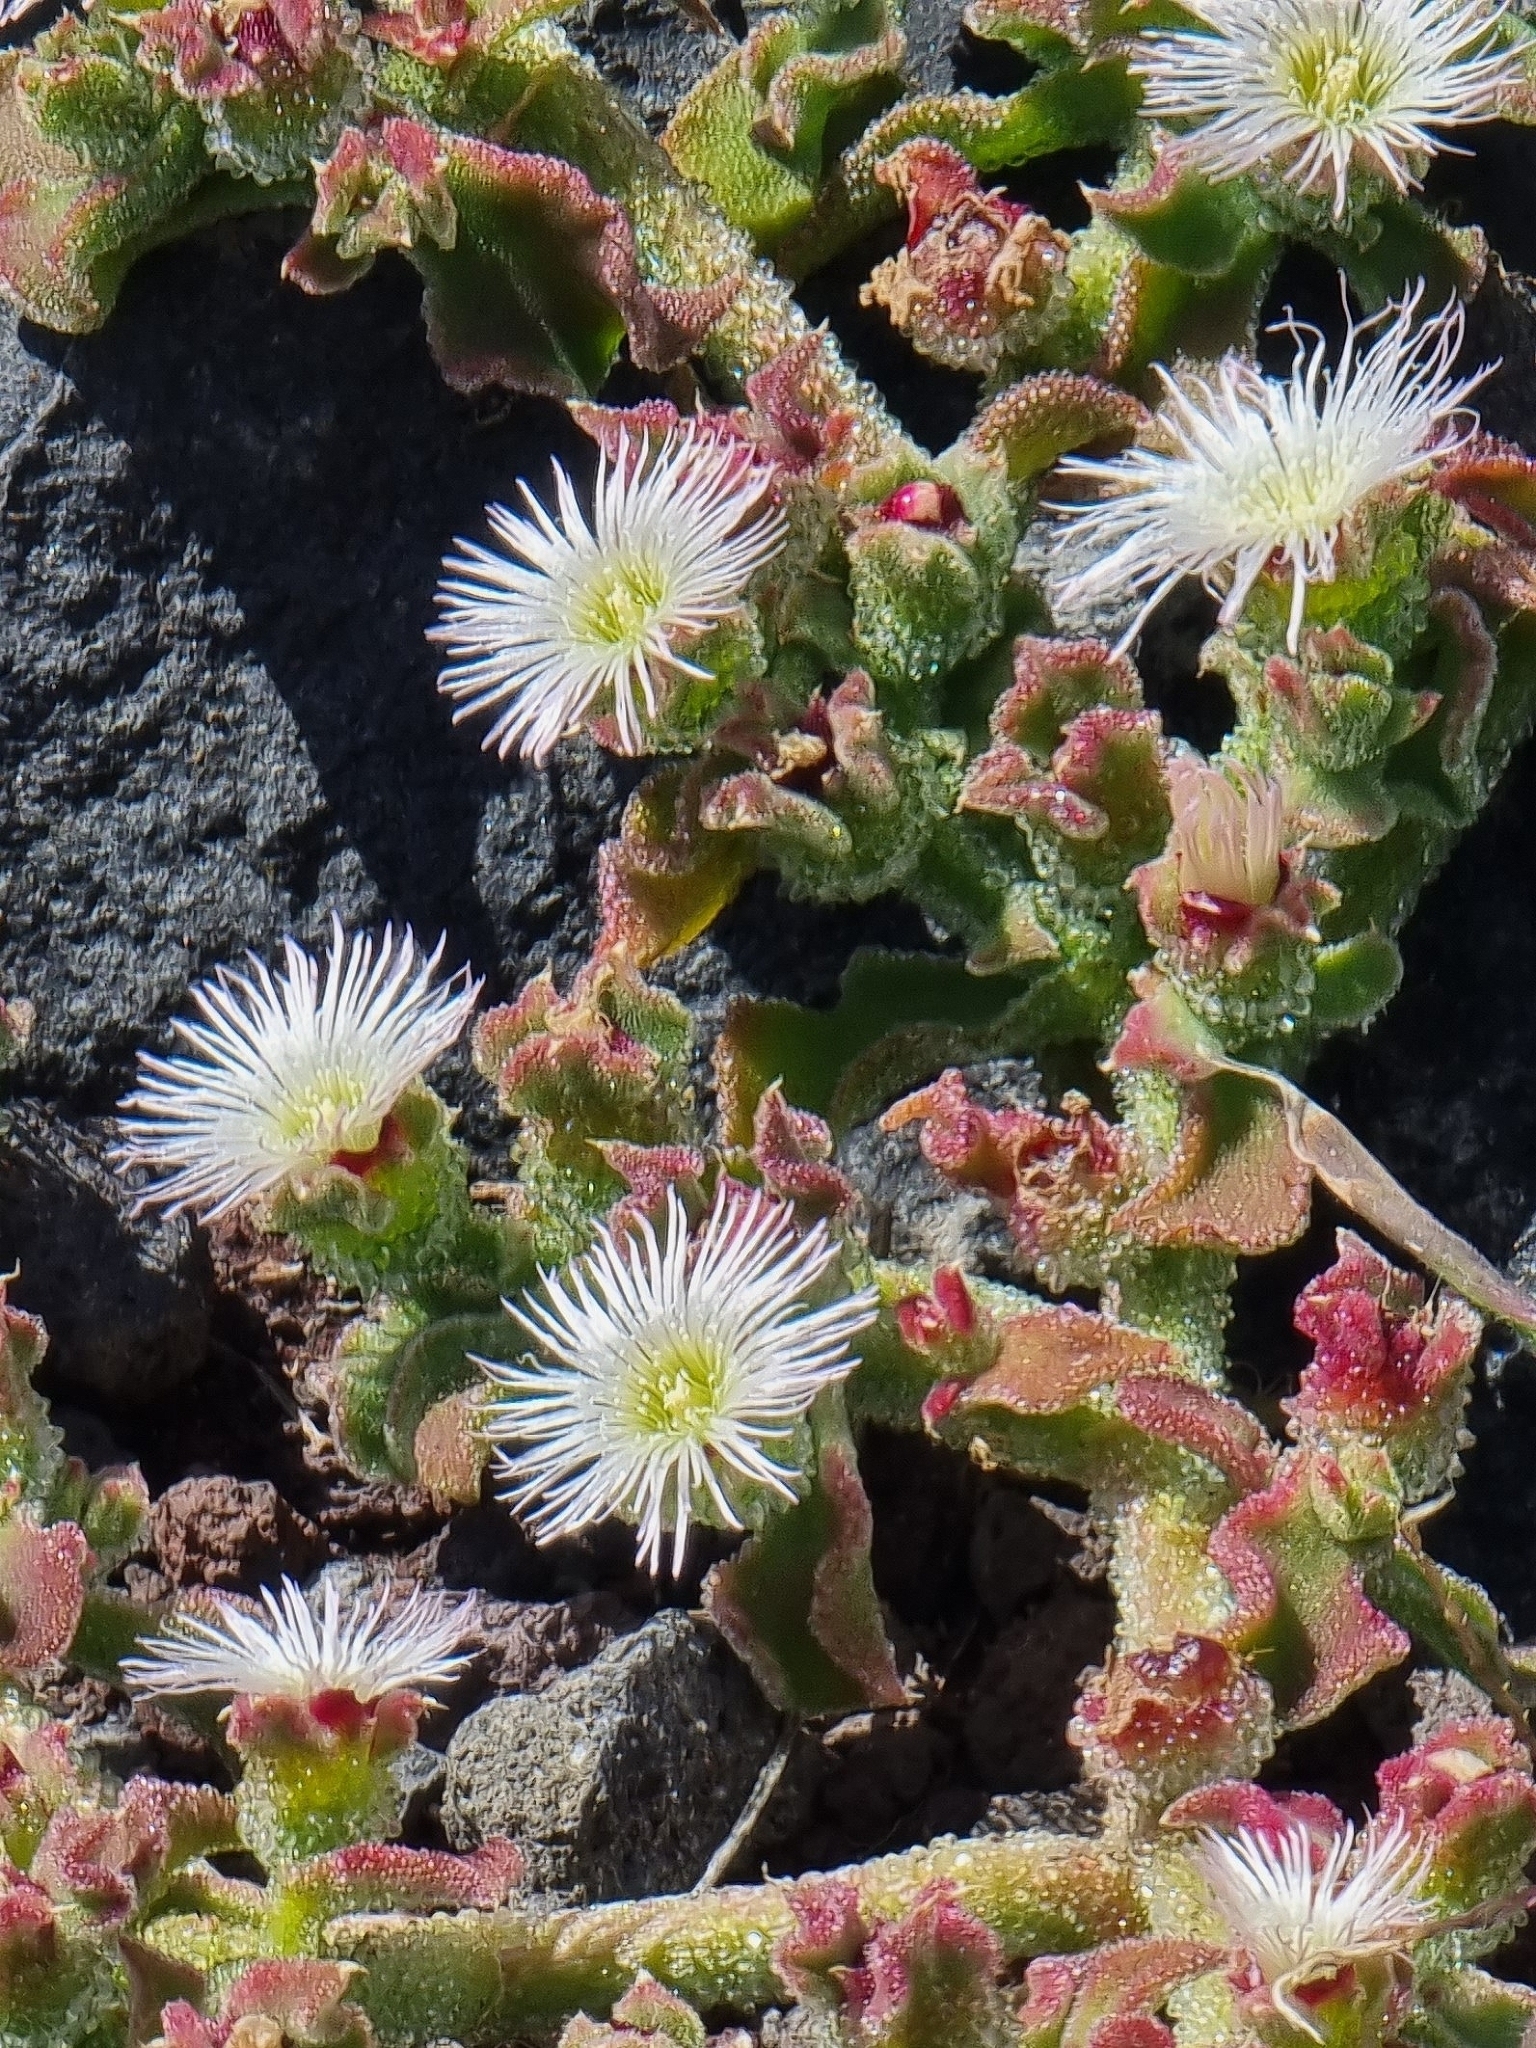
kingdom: Plantae
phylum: Tracheophyta
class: Magnoliopsida
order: Caryophyllales
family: Aizoaceae
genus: Mesembryanthemum
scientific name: Mesembryanthemum crystallinum
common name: Common iceplant
